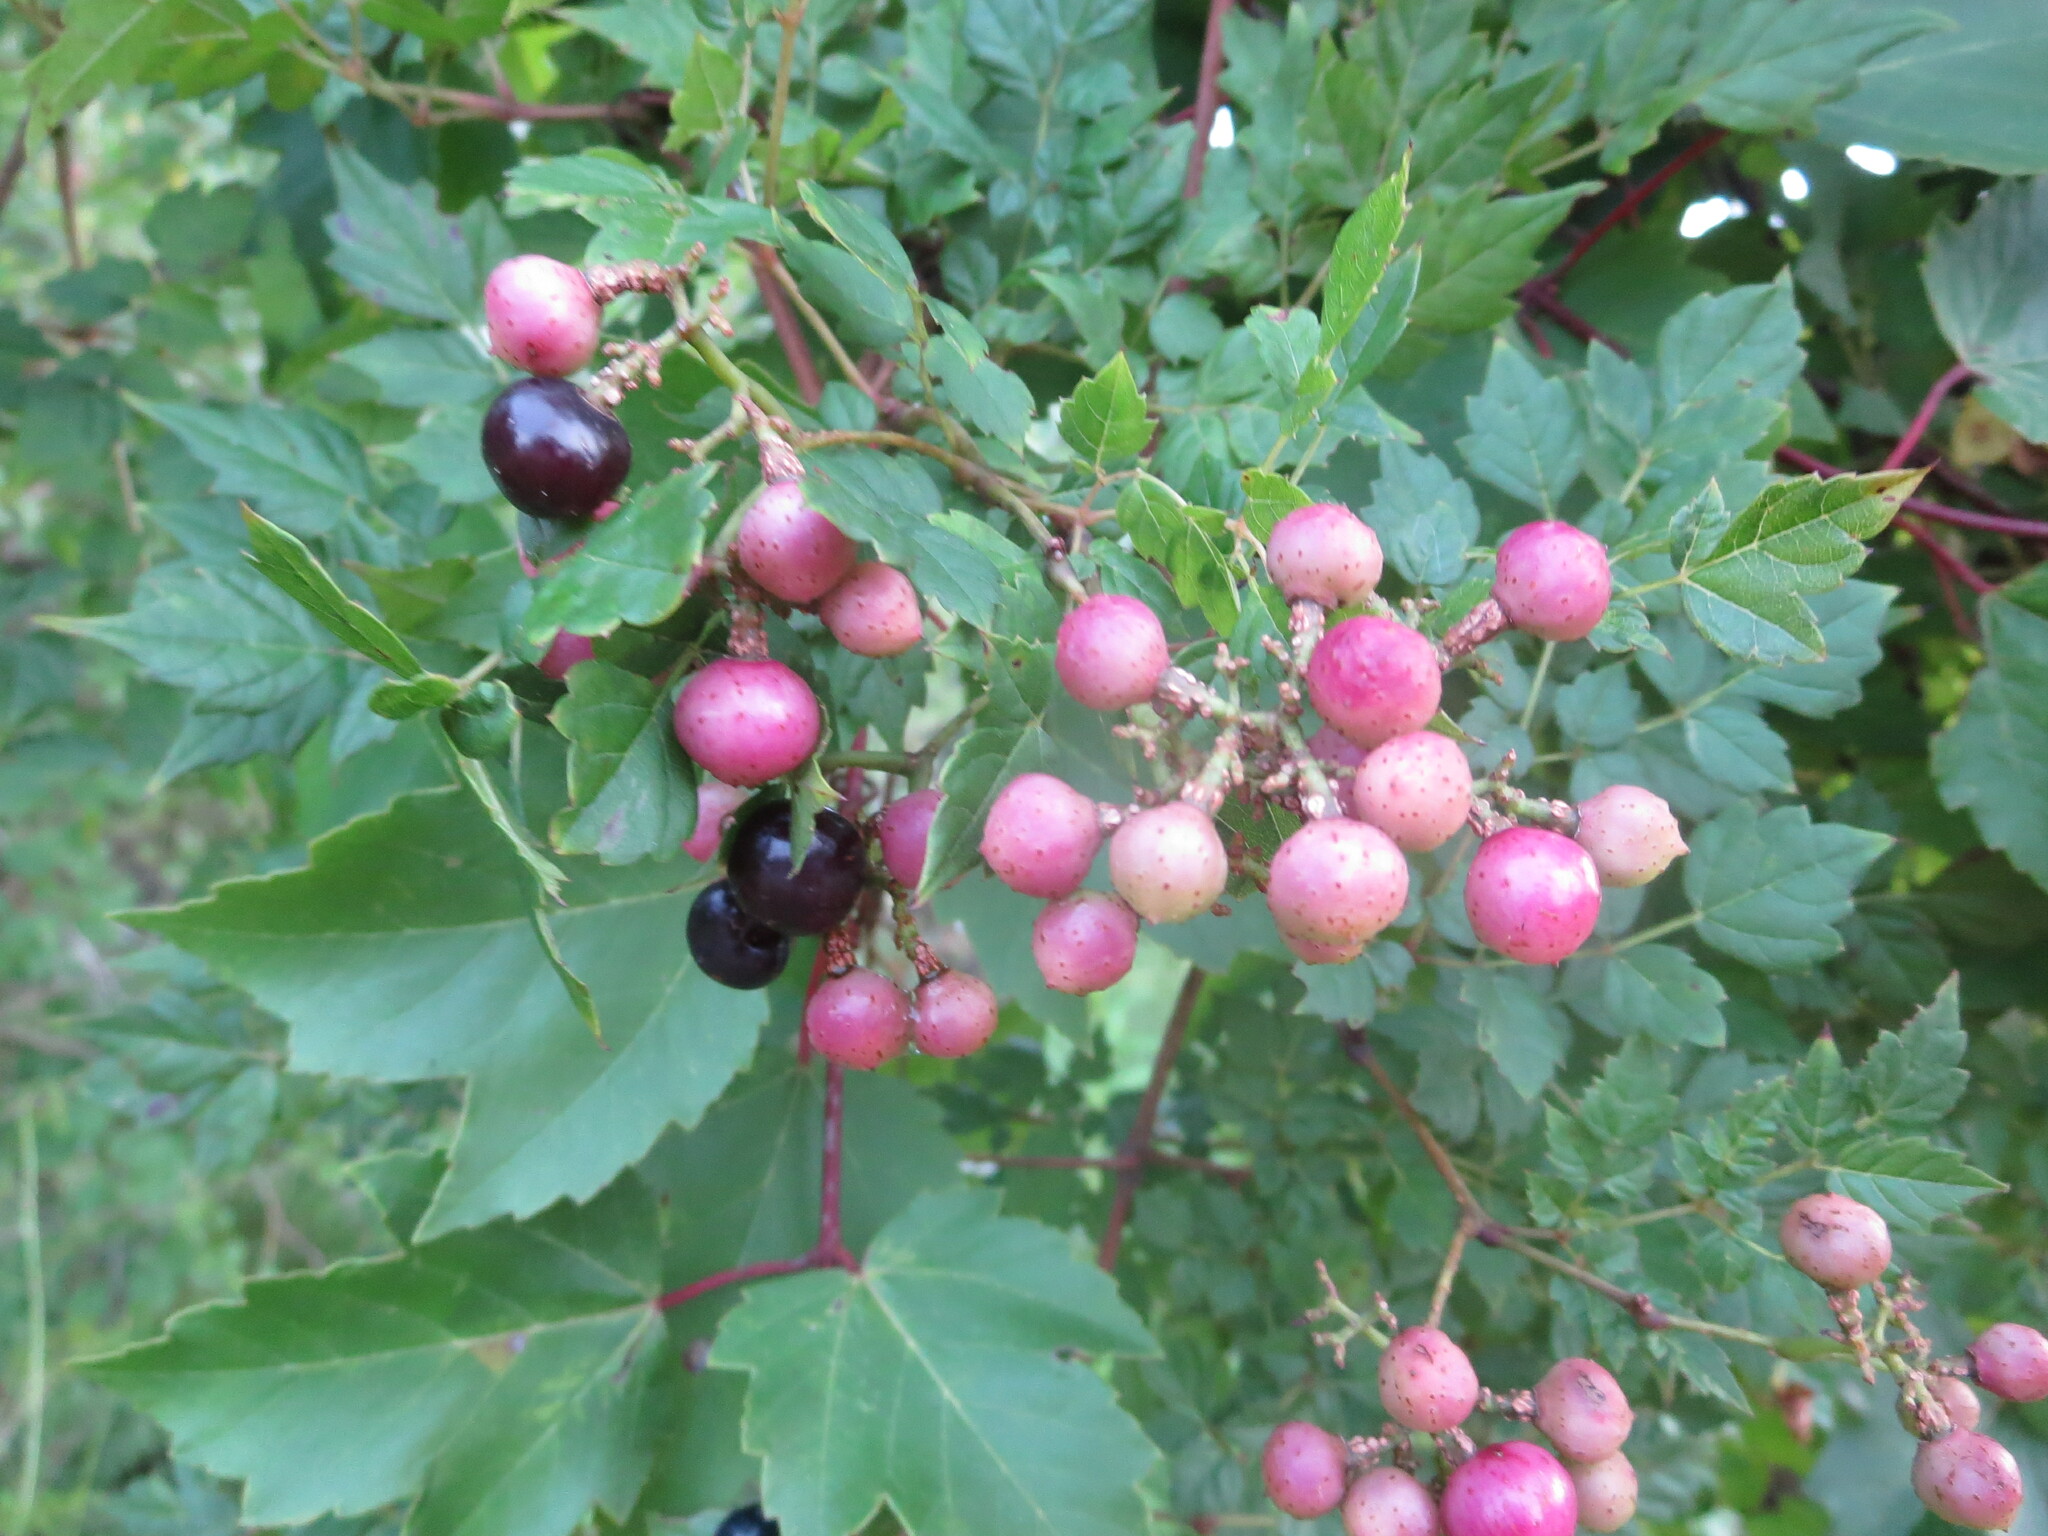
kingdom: Plantae
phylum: Tracheophyta
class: Magnoliopsida
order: Vitales
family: Vitaceae
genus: Nekemias
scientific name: Nekemias arborea
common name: Peppervine
